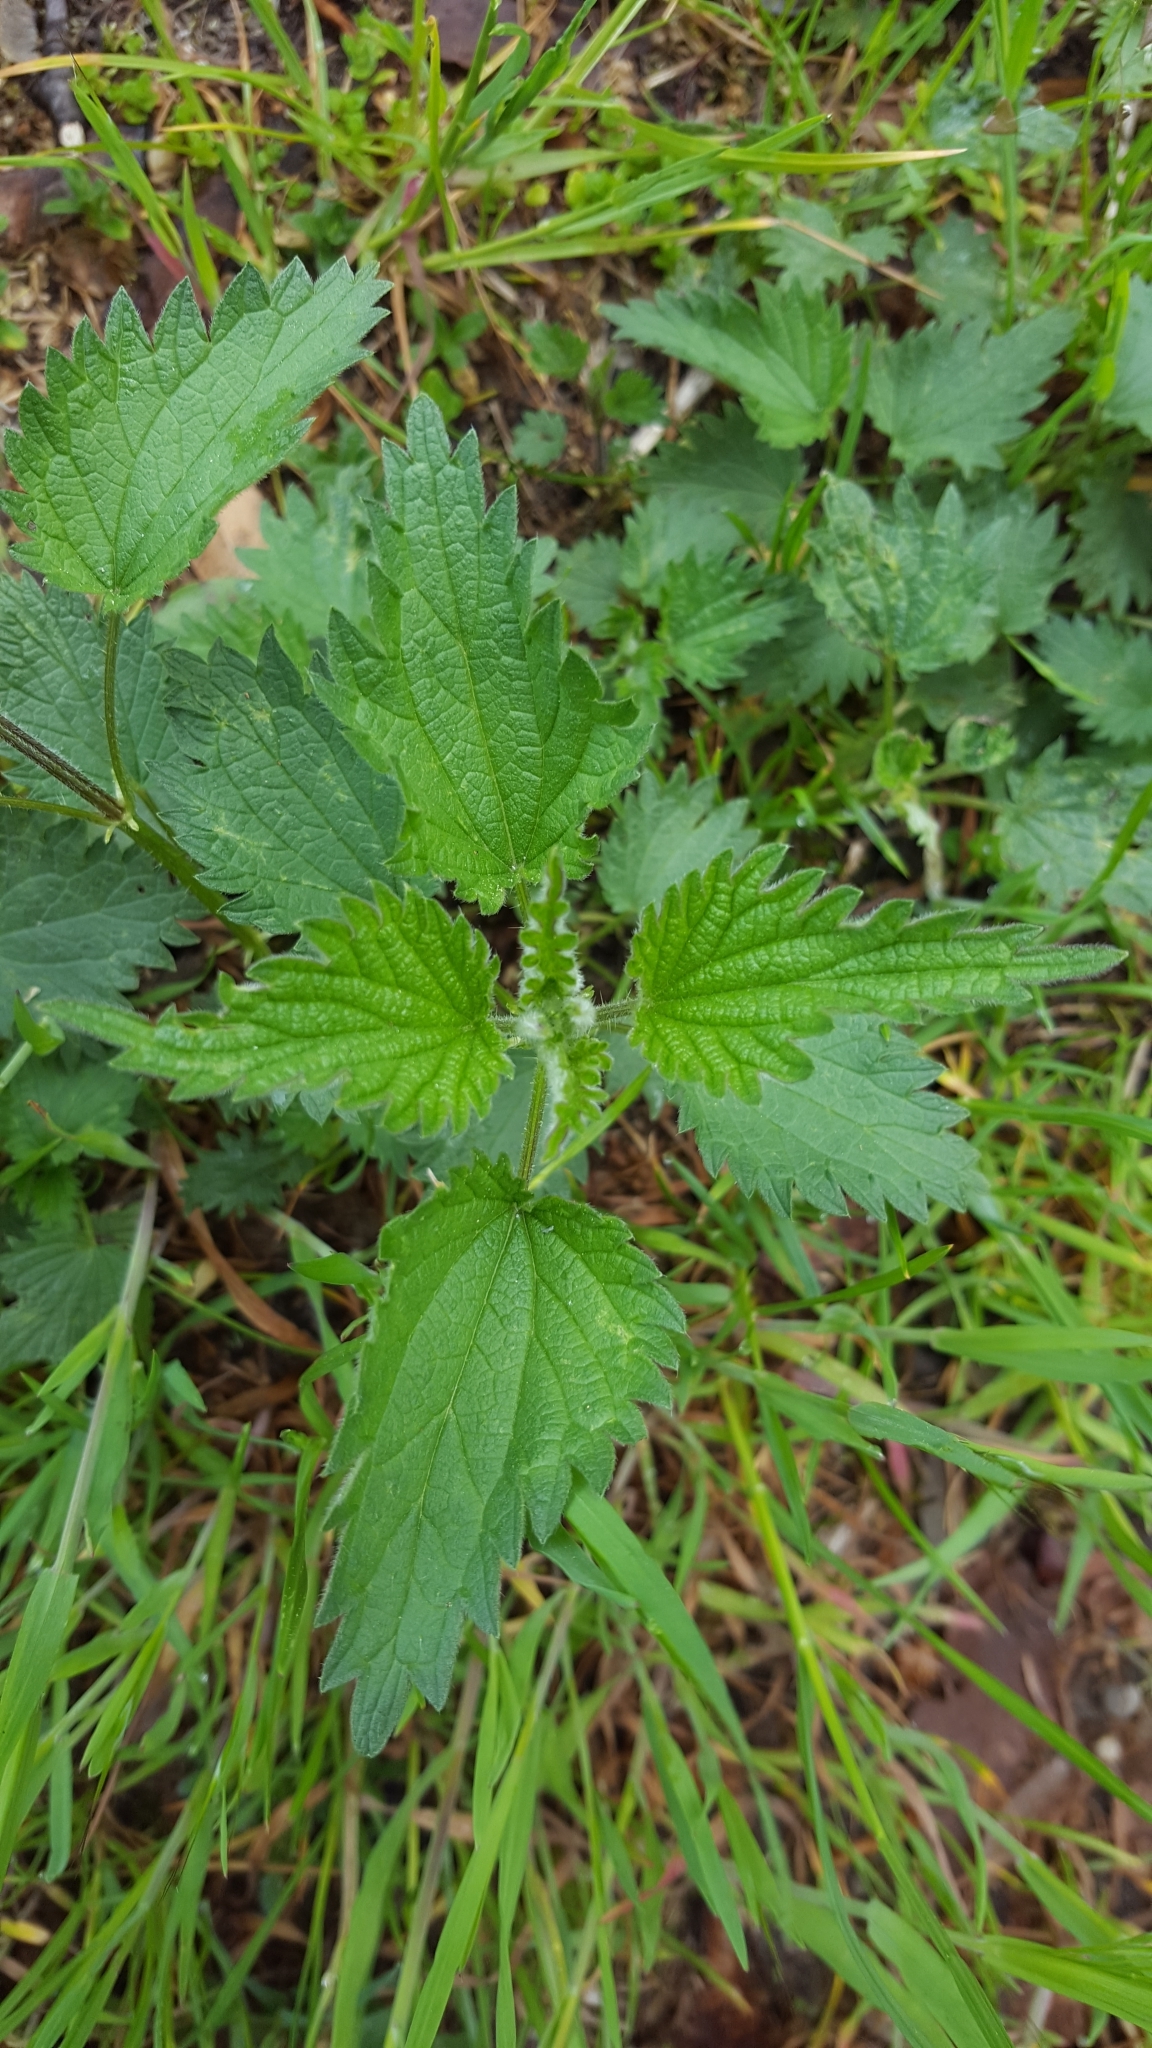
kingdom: Plantae
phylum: Tracheophyta
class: Magnoliopsida
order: Rosales
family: Urticaceae
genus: Urtica
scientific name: Urtica dioica
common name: Common nettle
